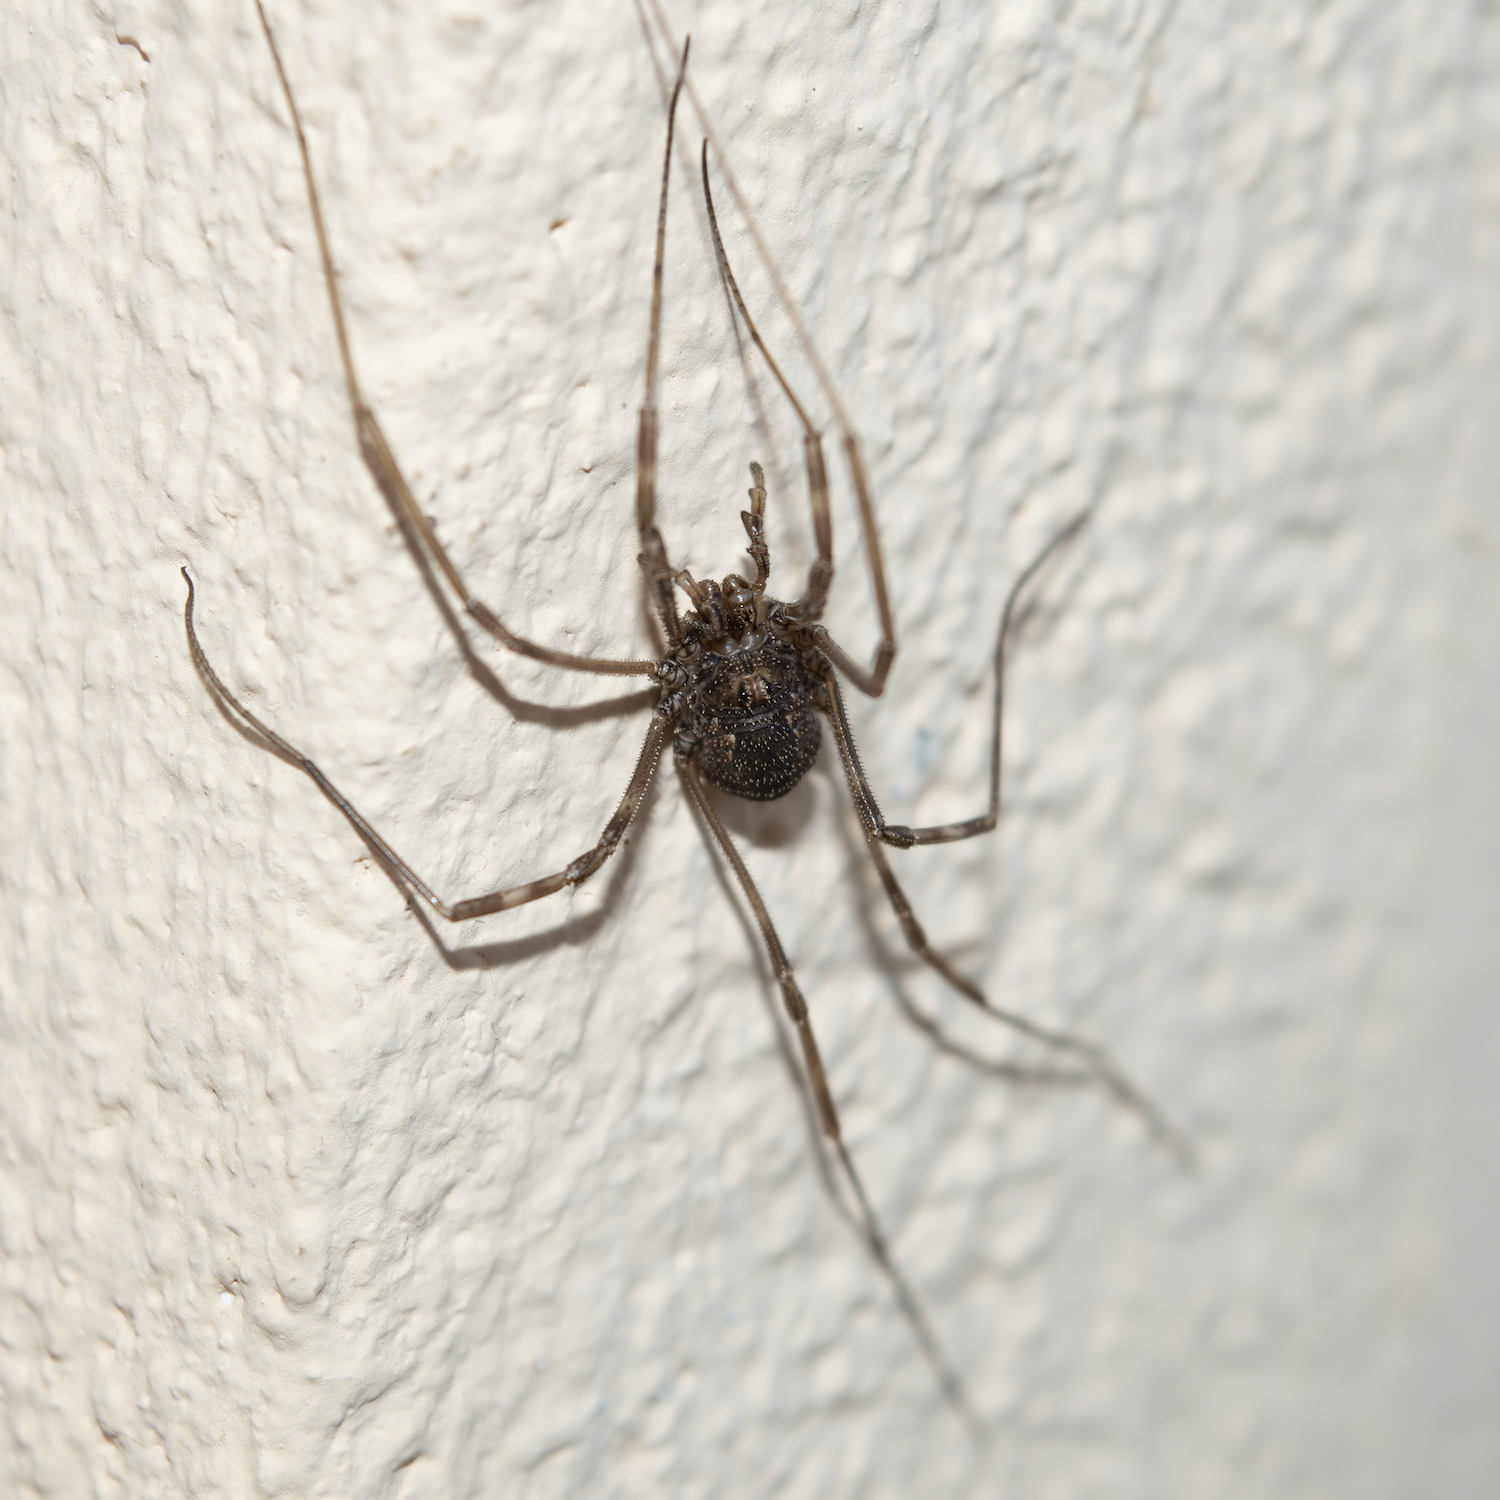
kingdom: Animalia
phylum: Arthropoda
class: Arachnida
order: Opiliones
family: Phalangiidae
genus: Metaplatybunus
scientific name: Metaplatybunus grandissimus
